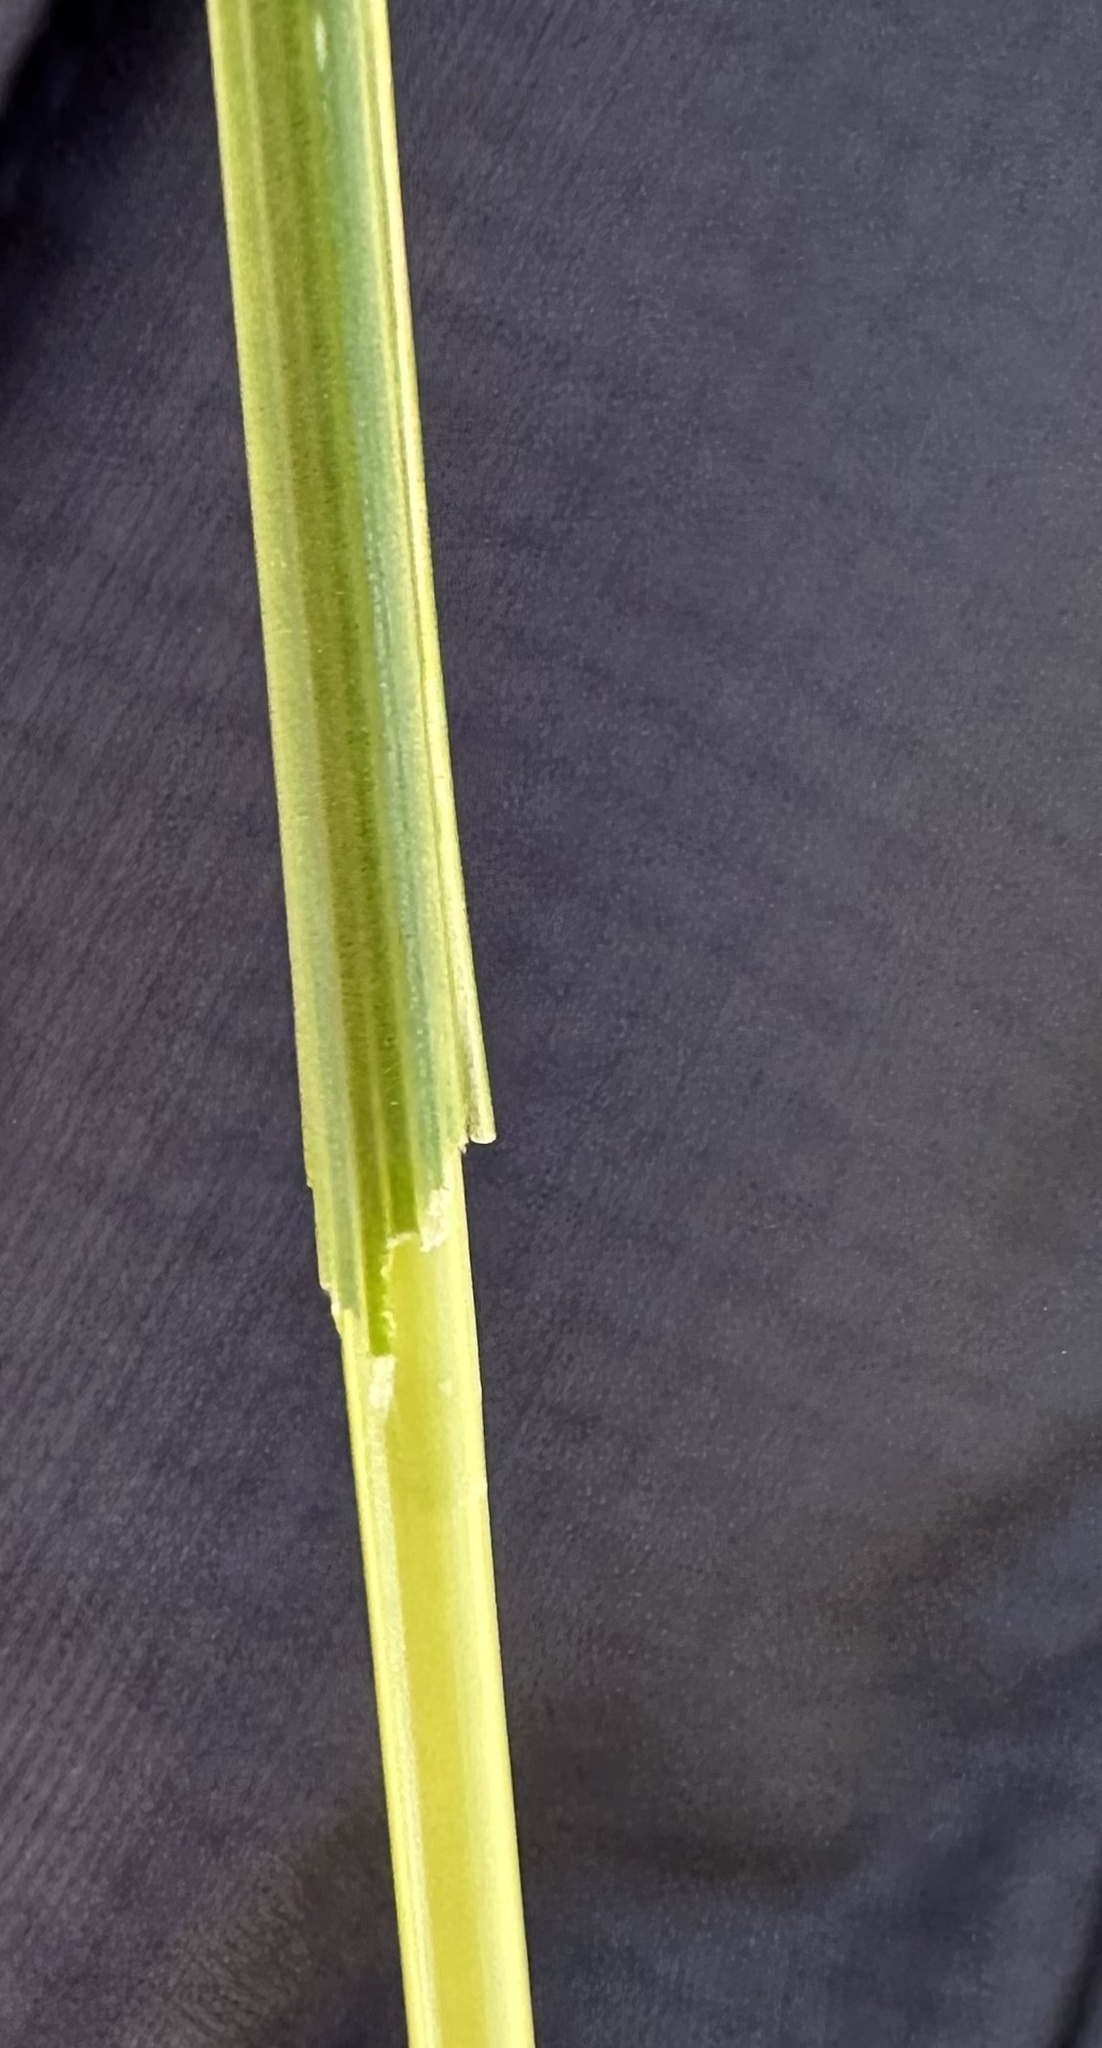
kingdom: Plantae
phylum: Tracheophyta
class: Liliopsida
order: Poales
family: Poaceae
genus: Deschampsia
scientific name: Deschampsia cespitosa
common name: Tufted hair-grass
